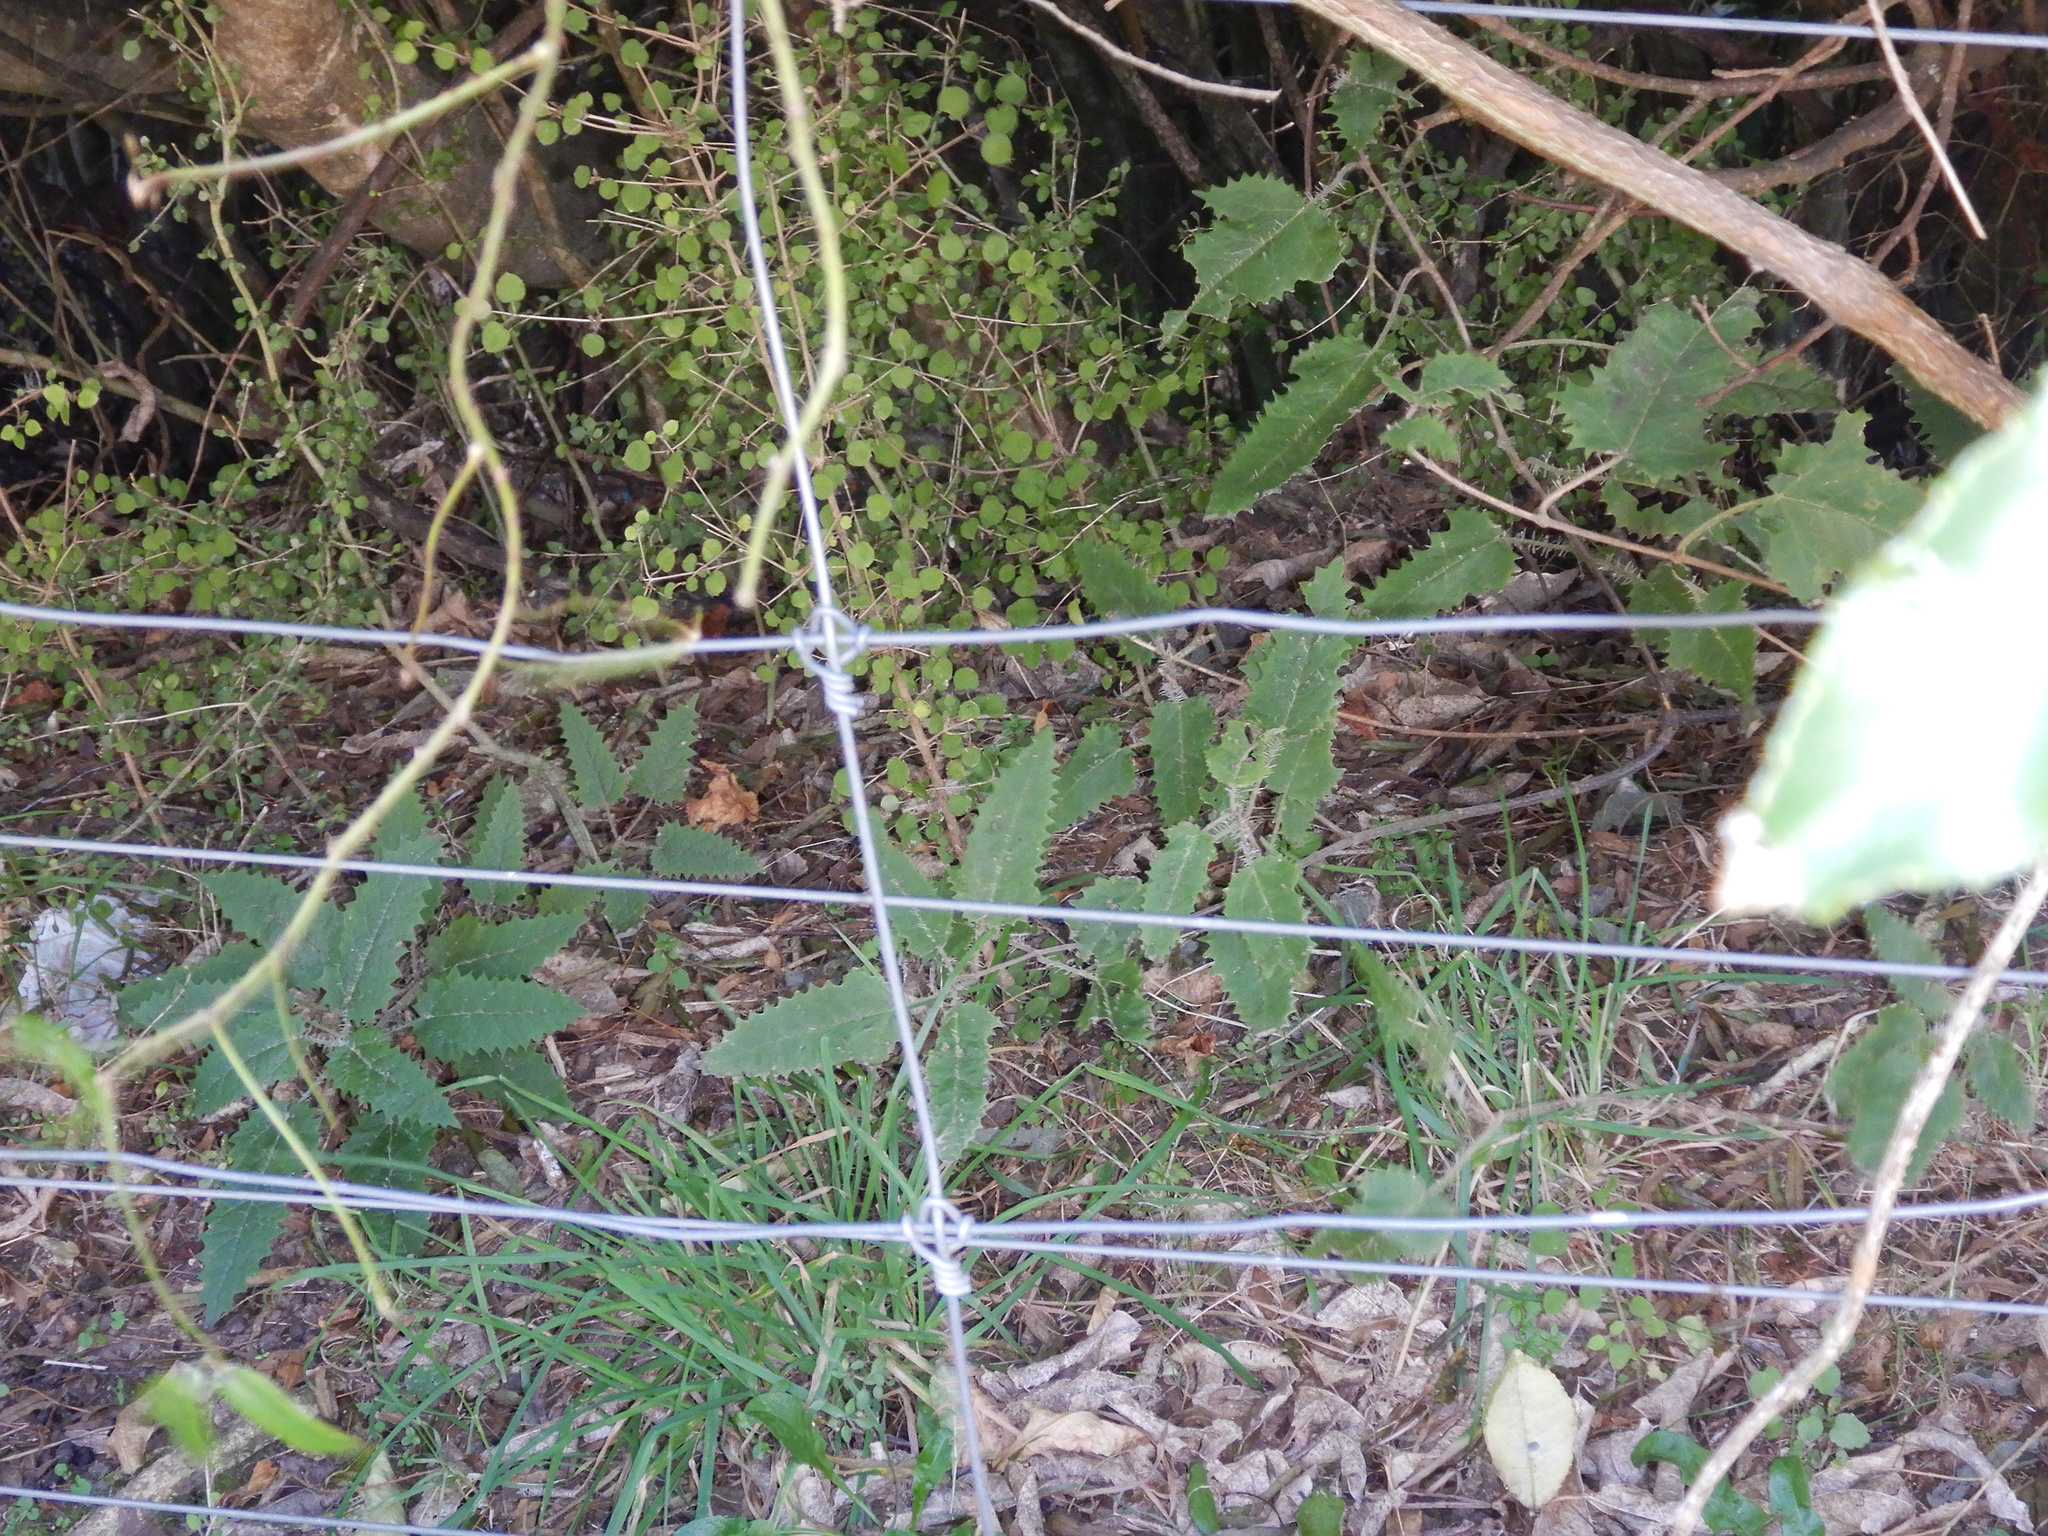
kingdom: Plantae
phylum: Tracheophyta
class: Magnoliopsida
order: Rosales
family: Urticaceae
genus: Urtica
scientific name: Urtica ferox
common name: Tree nettle
